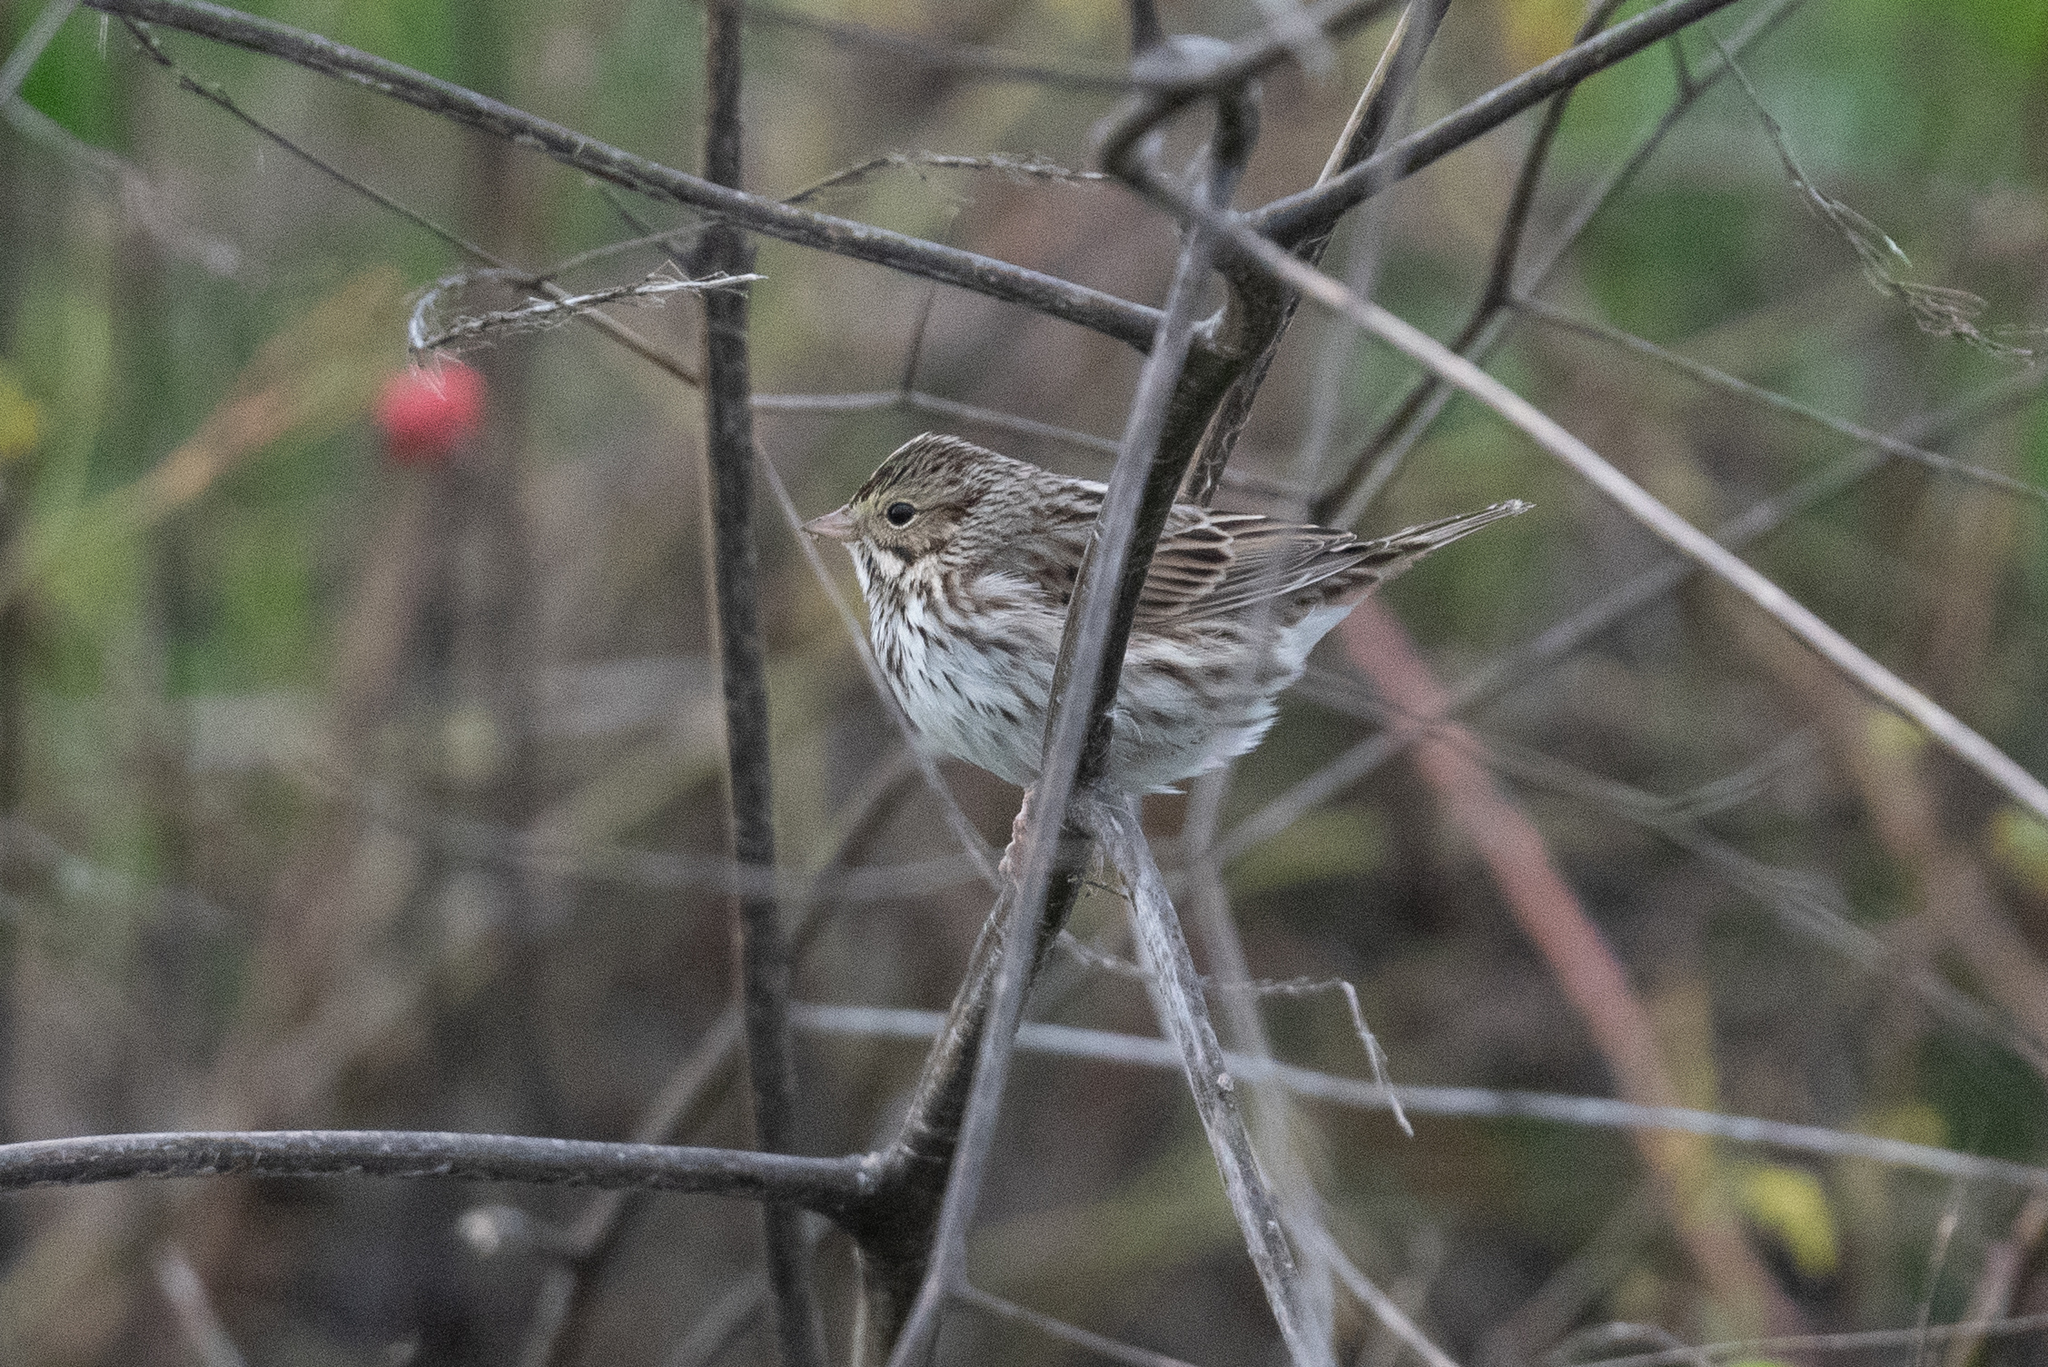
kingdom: Animalia
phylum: Chordata
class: Aves
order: Passeriformes
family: Passerellidae
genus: Passerculus
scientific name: Passerculus sandwichensis
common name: Savannah sparrow
